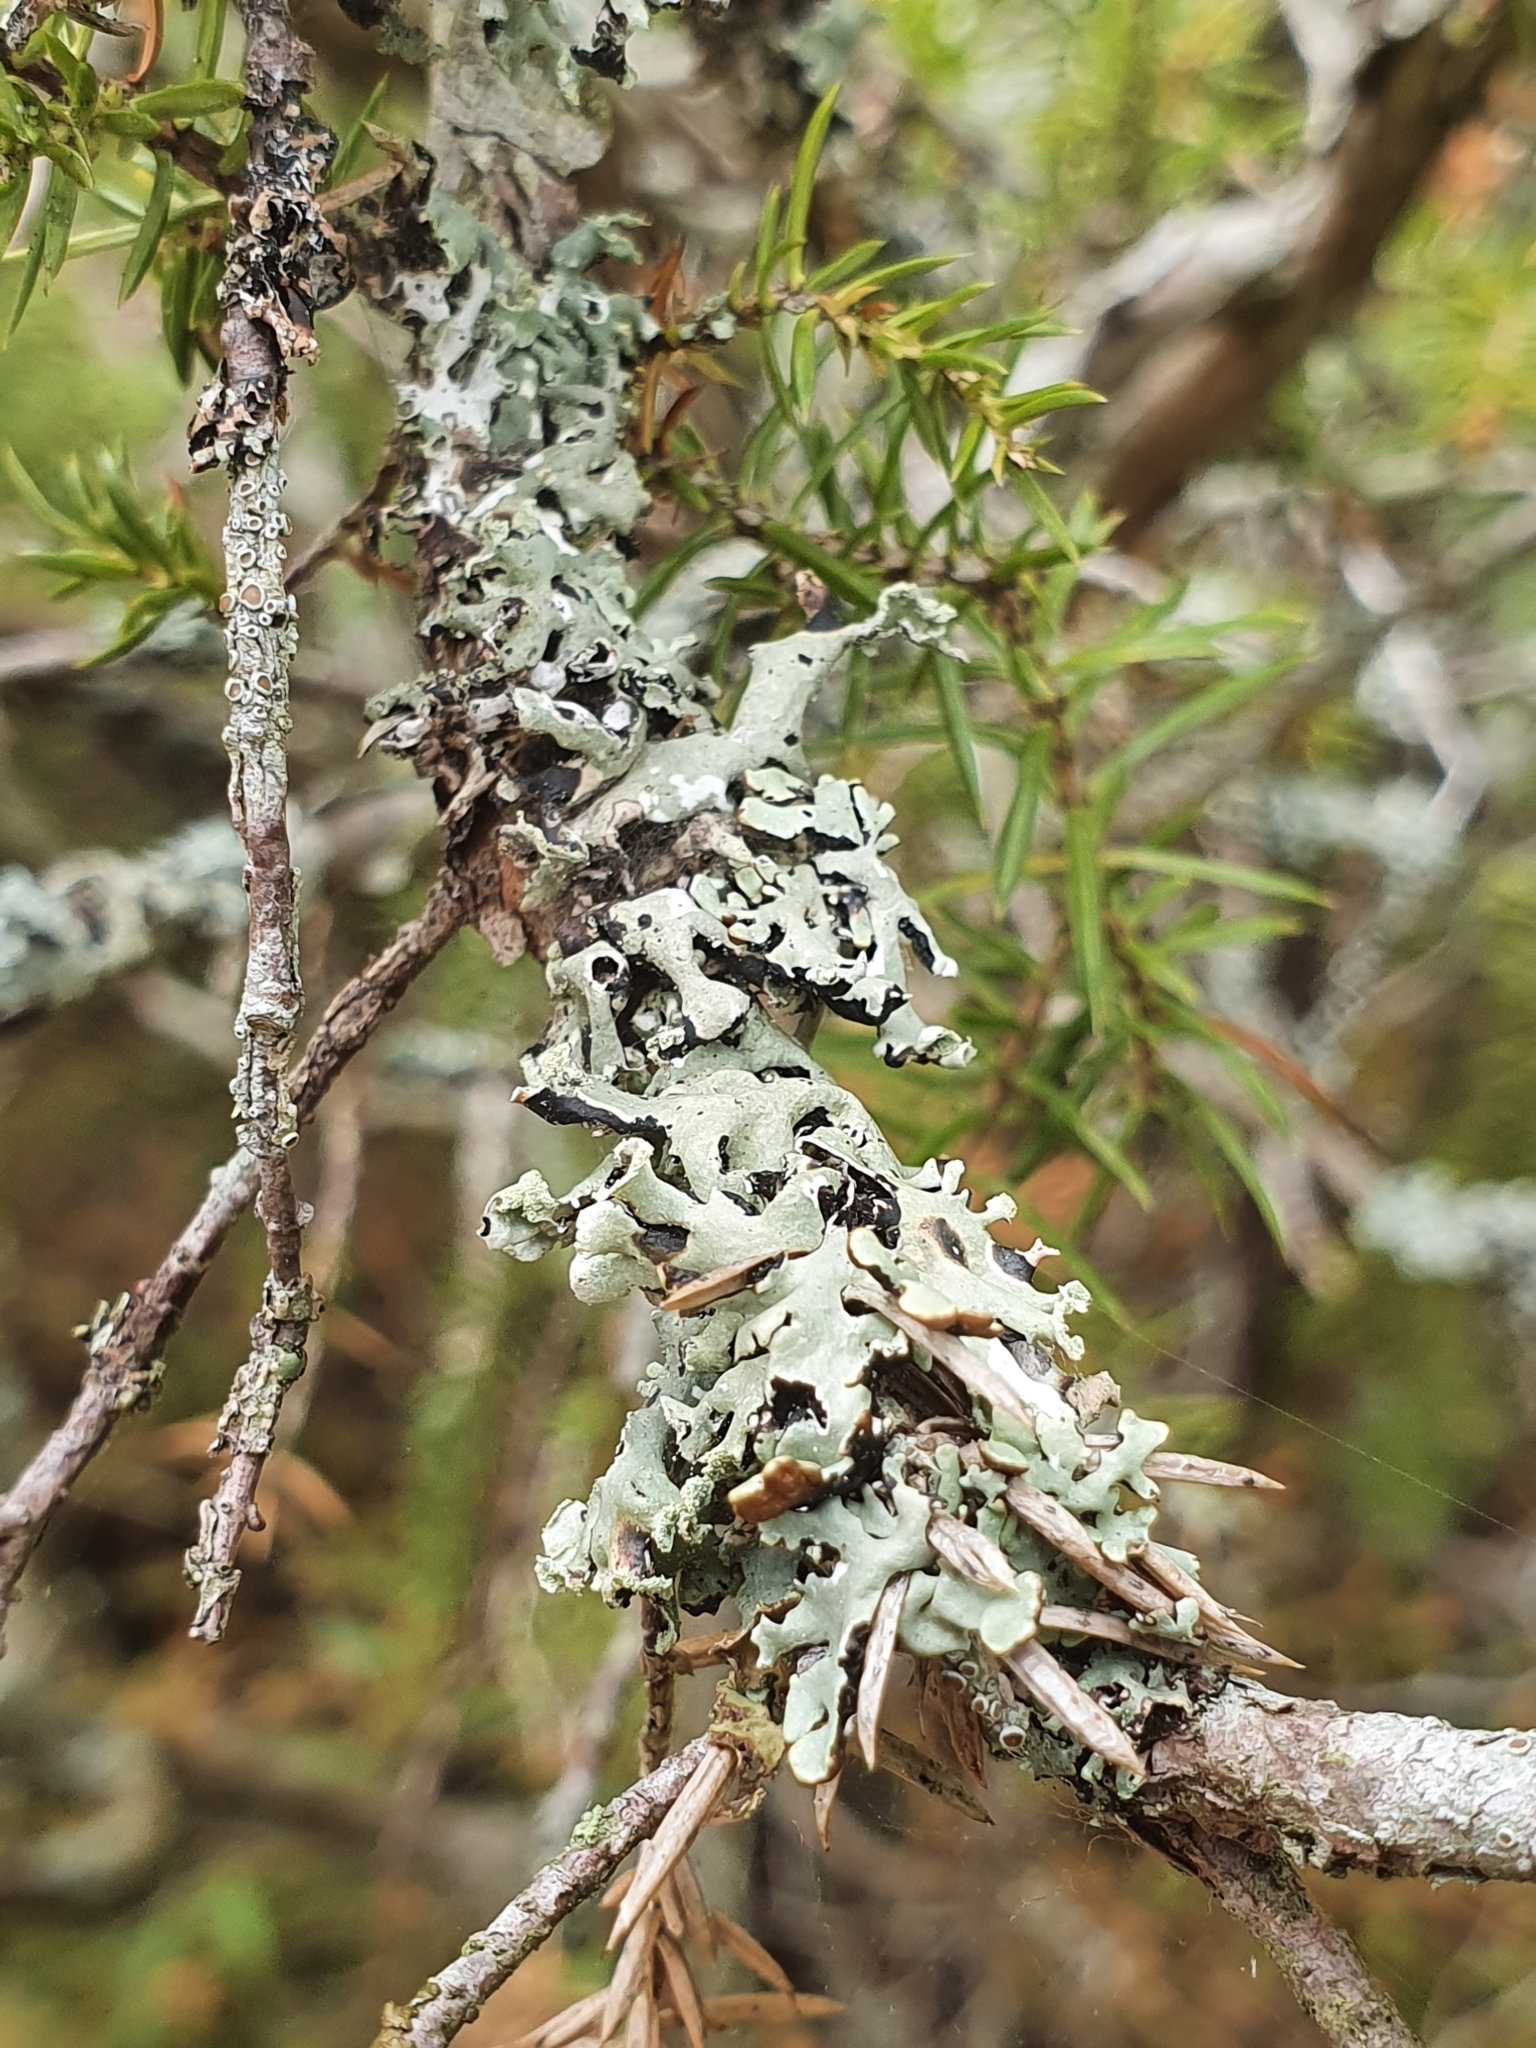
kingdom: Fungi
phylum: Ascomycota
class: Lecanoromycetes
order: Lecanorales
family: Parmeliaceae
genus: Hypogymnia
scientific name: Hypogymnia physodes
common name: Dark crottle
